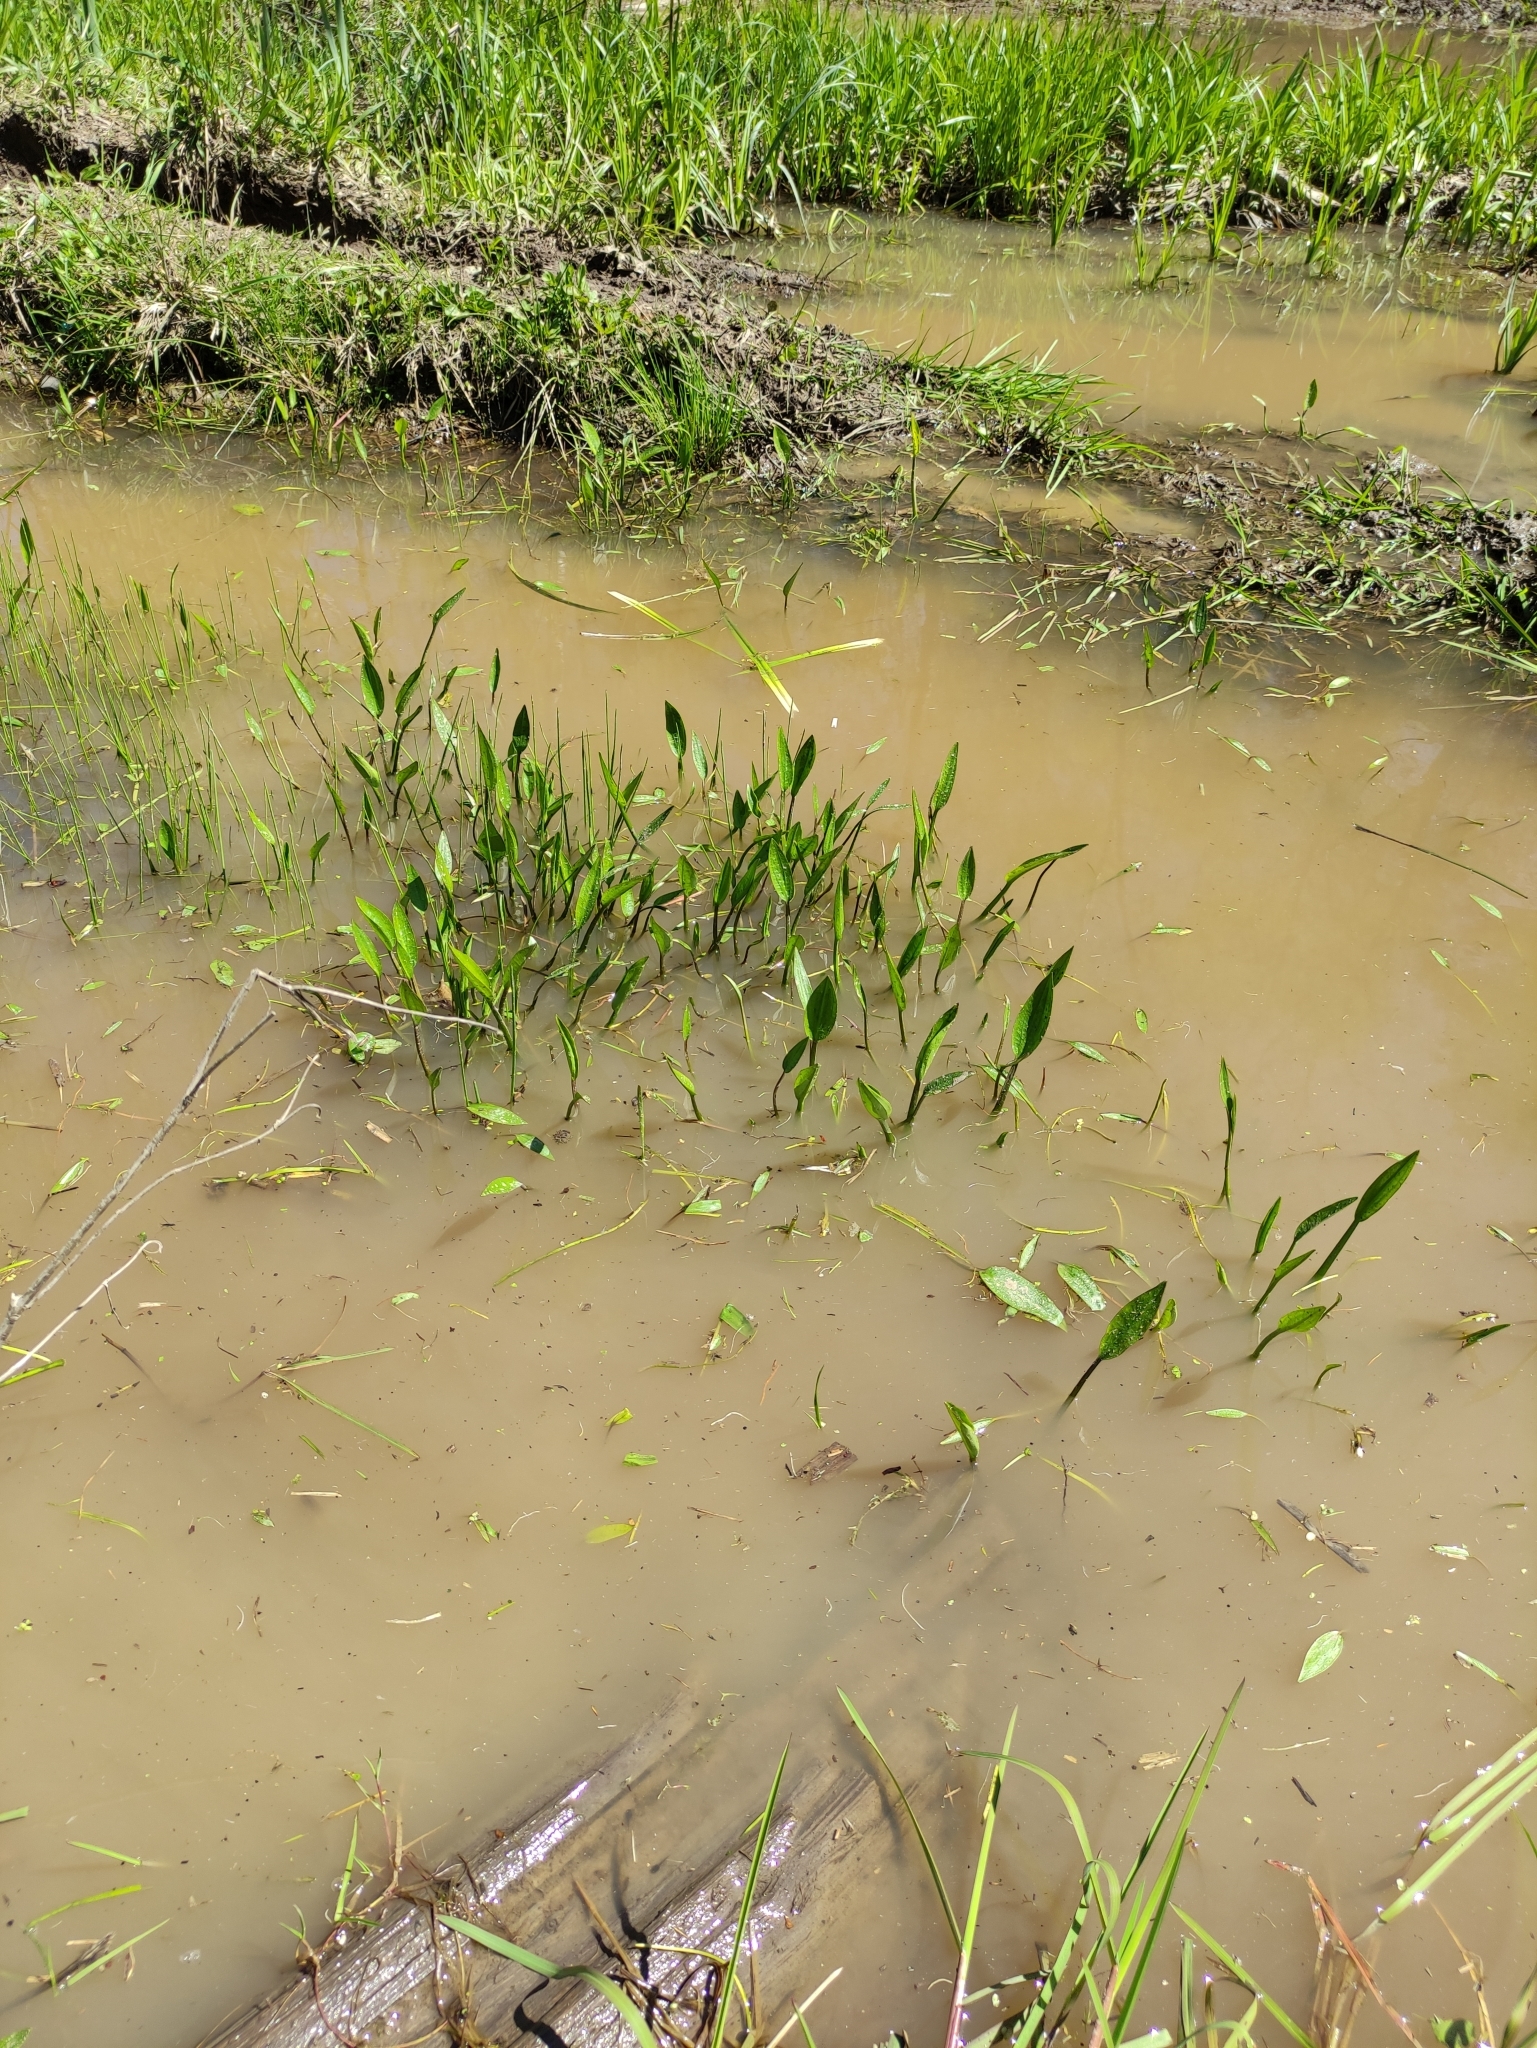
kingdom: Plantae
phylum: Tracheophyta
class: Liliopsida
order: Alismatales
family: Alismataceae
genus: Alisma
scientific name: Alisma plantago-aquatica
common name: Water-plantain
